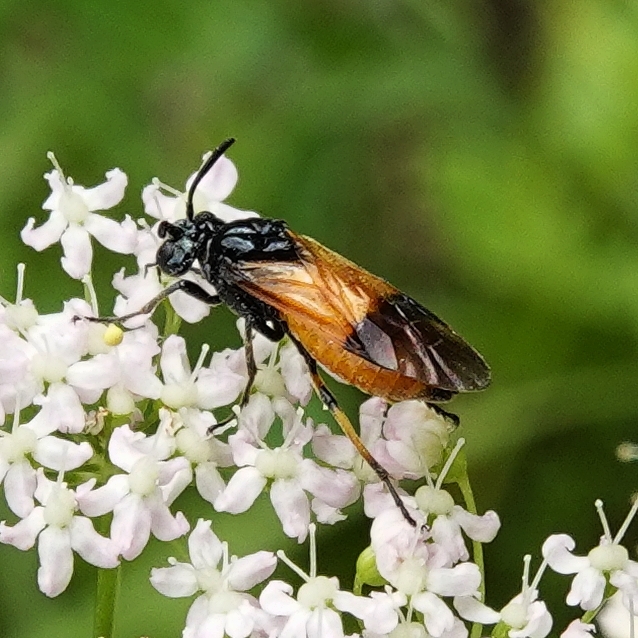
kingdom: Animalia
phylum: Arthropoda
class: Insecta
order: Hymenoptera
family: Argidae
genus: Arge
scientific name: Arge cyanocrocea
